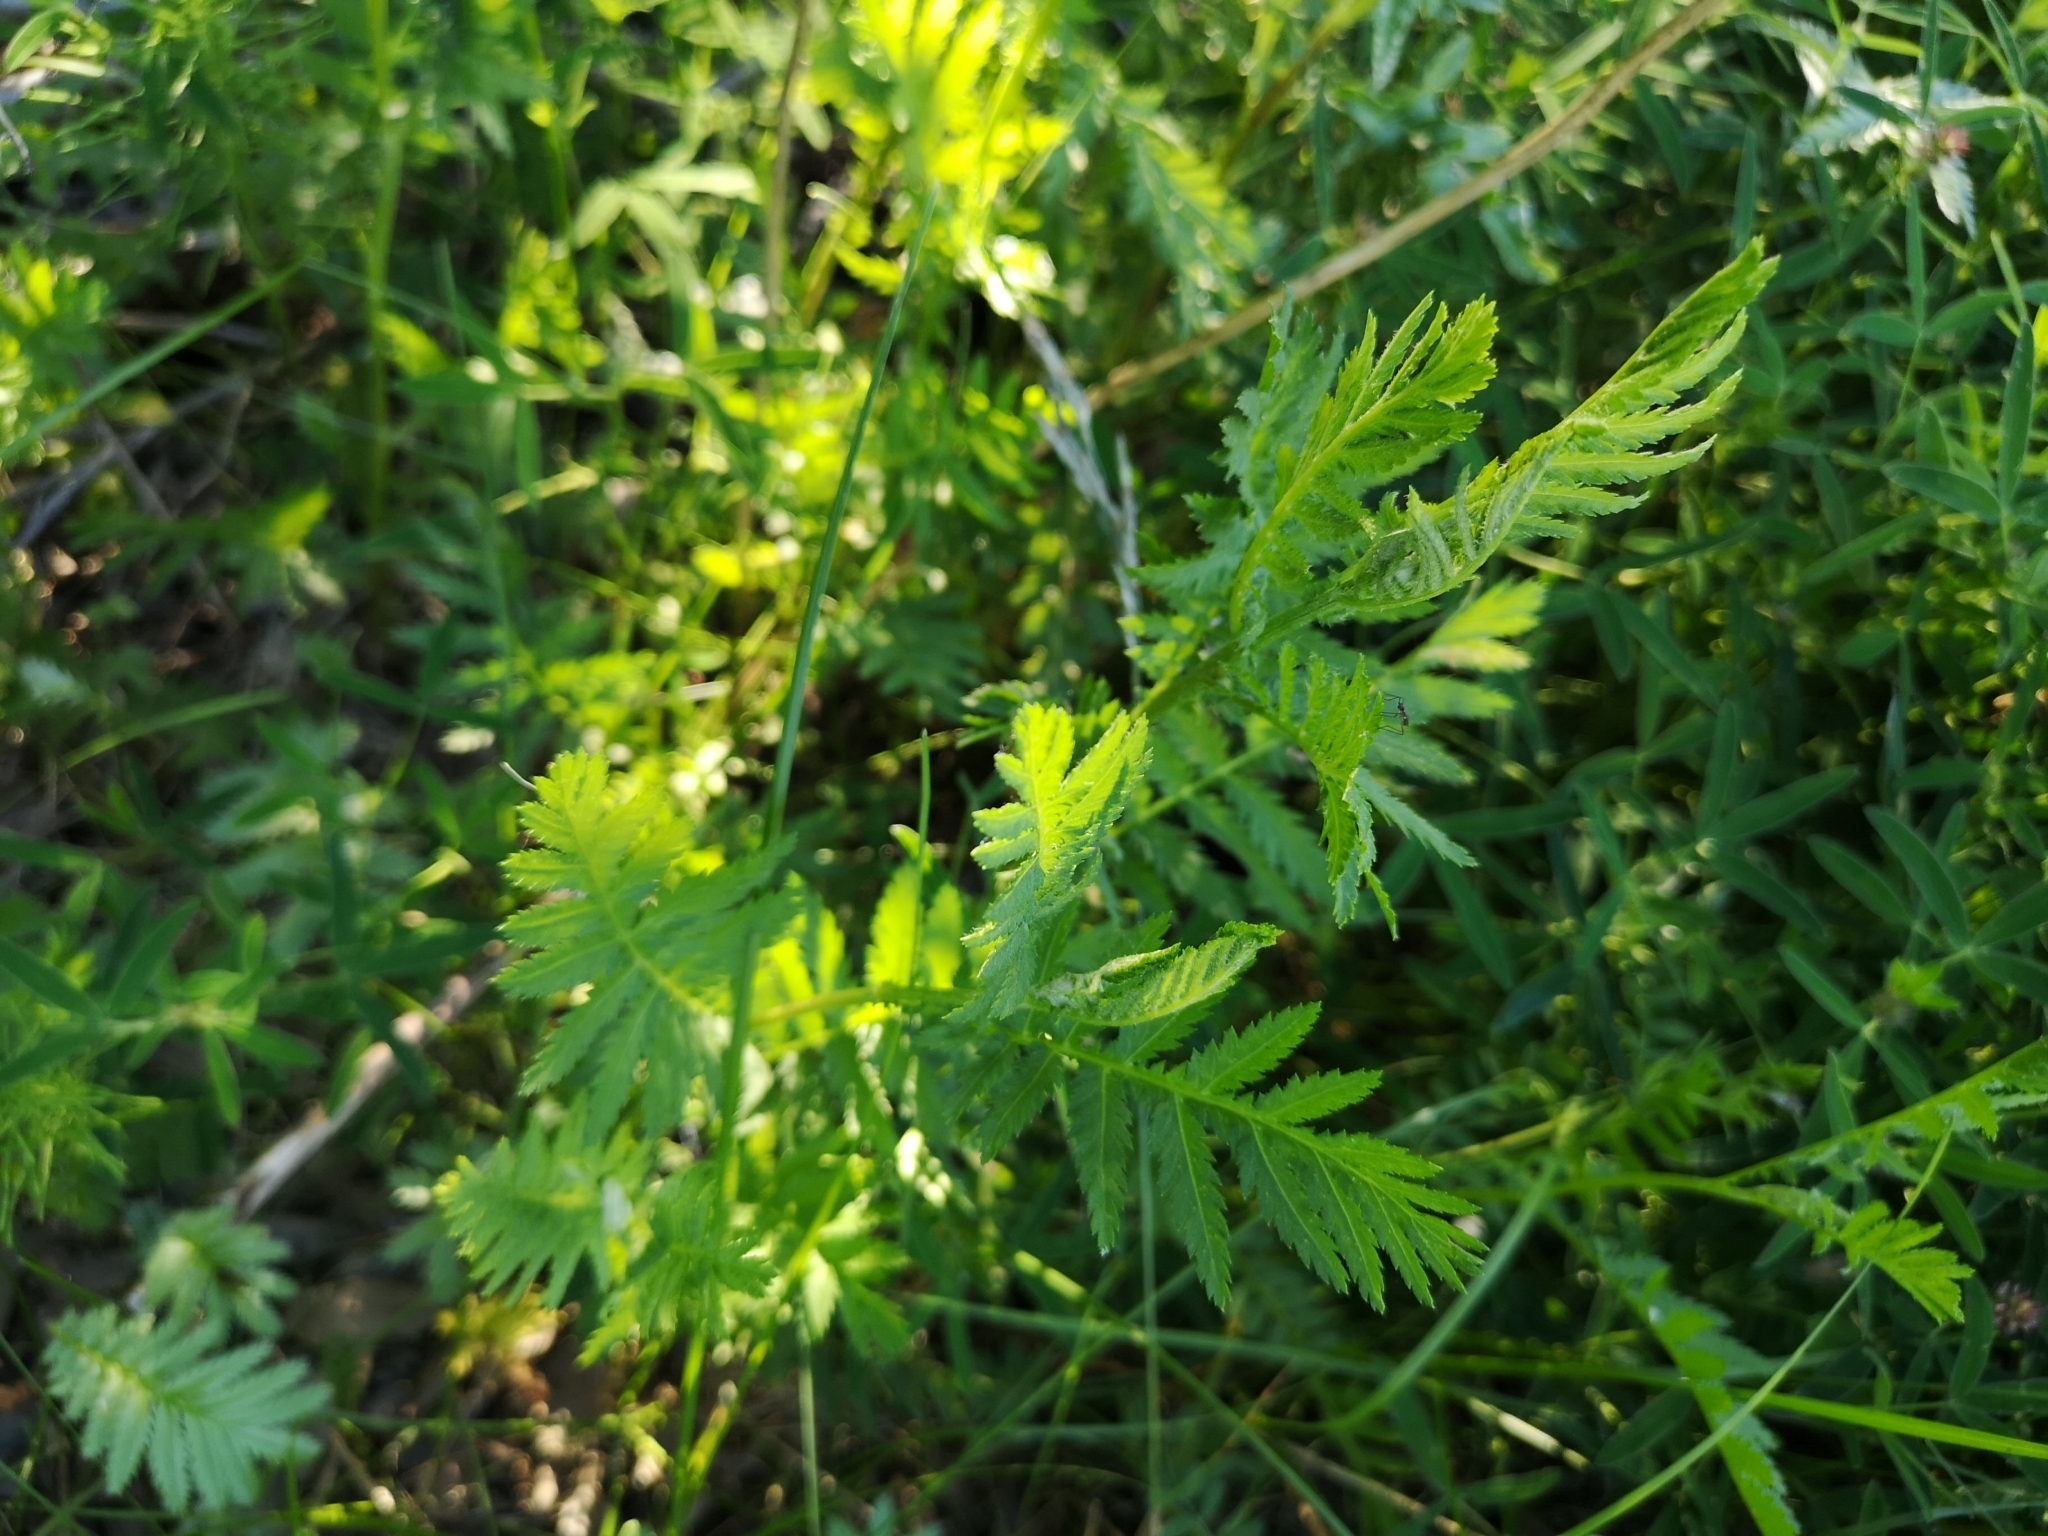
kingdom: Plantae
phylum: Tracheophyta
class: Magnoliopsida
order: Asterales
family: Asteraceae
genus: Tanacetum
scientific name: Tanacetum vulgare
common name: Common tansy
